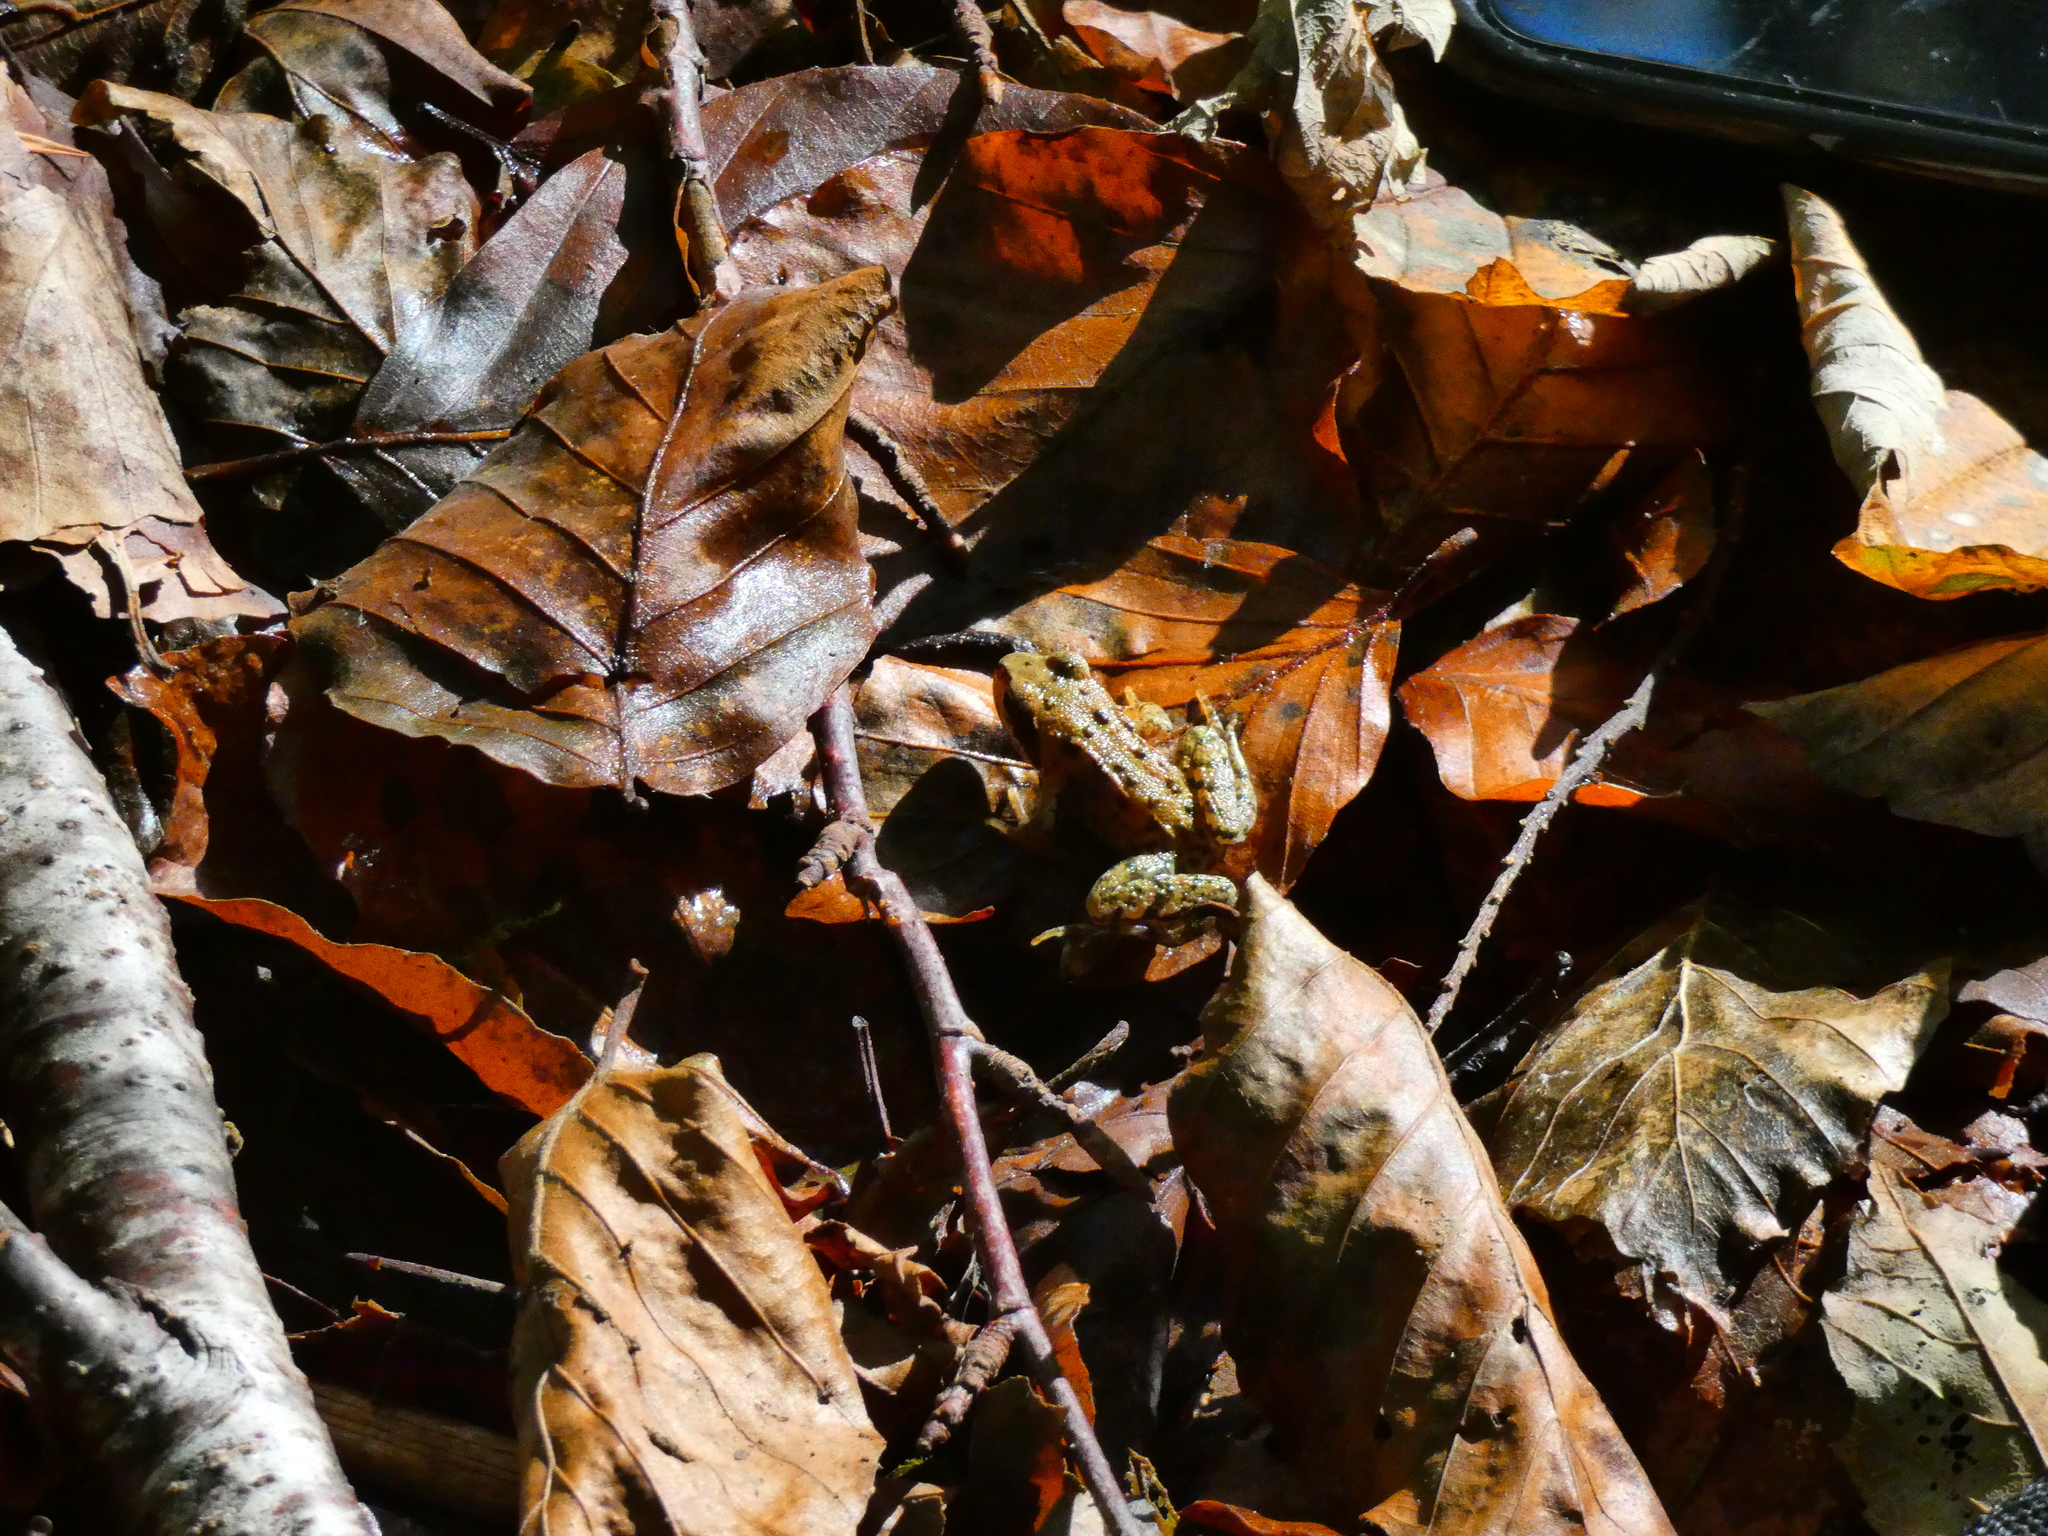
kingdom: Animalia
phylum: Chordata
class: Amphibia
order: Anura
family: Ranidae
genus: Rana
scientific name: Rana temporaria
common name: Common frog
